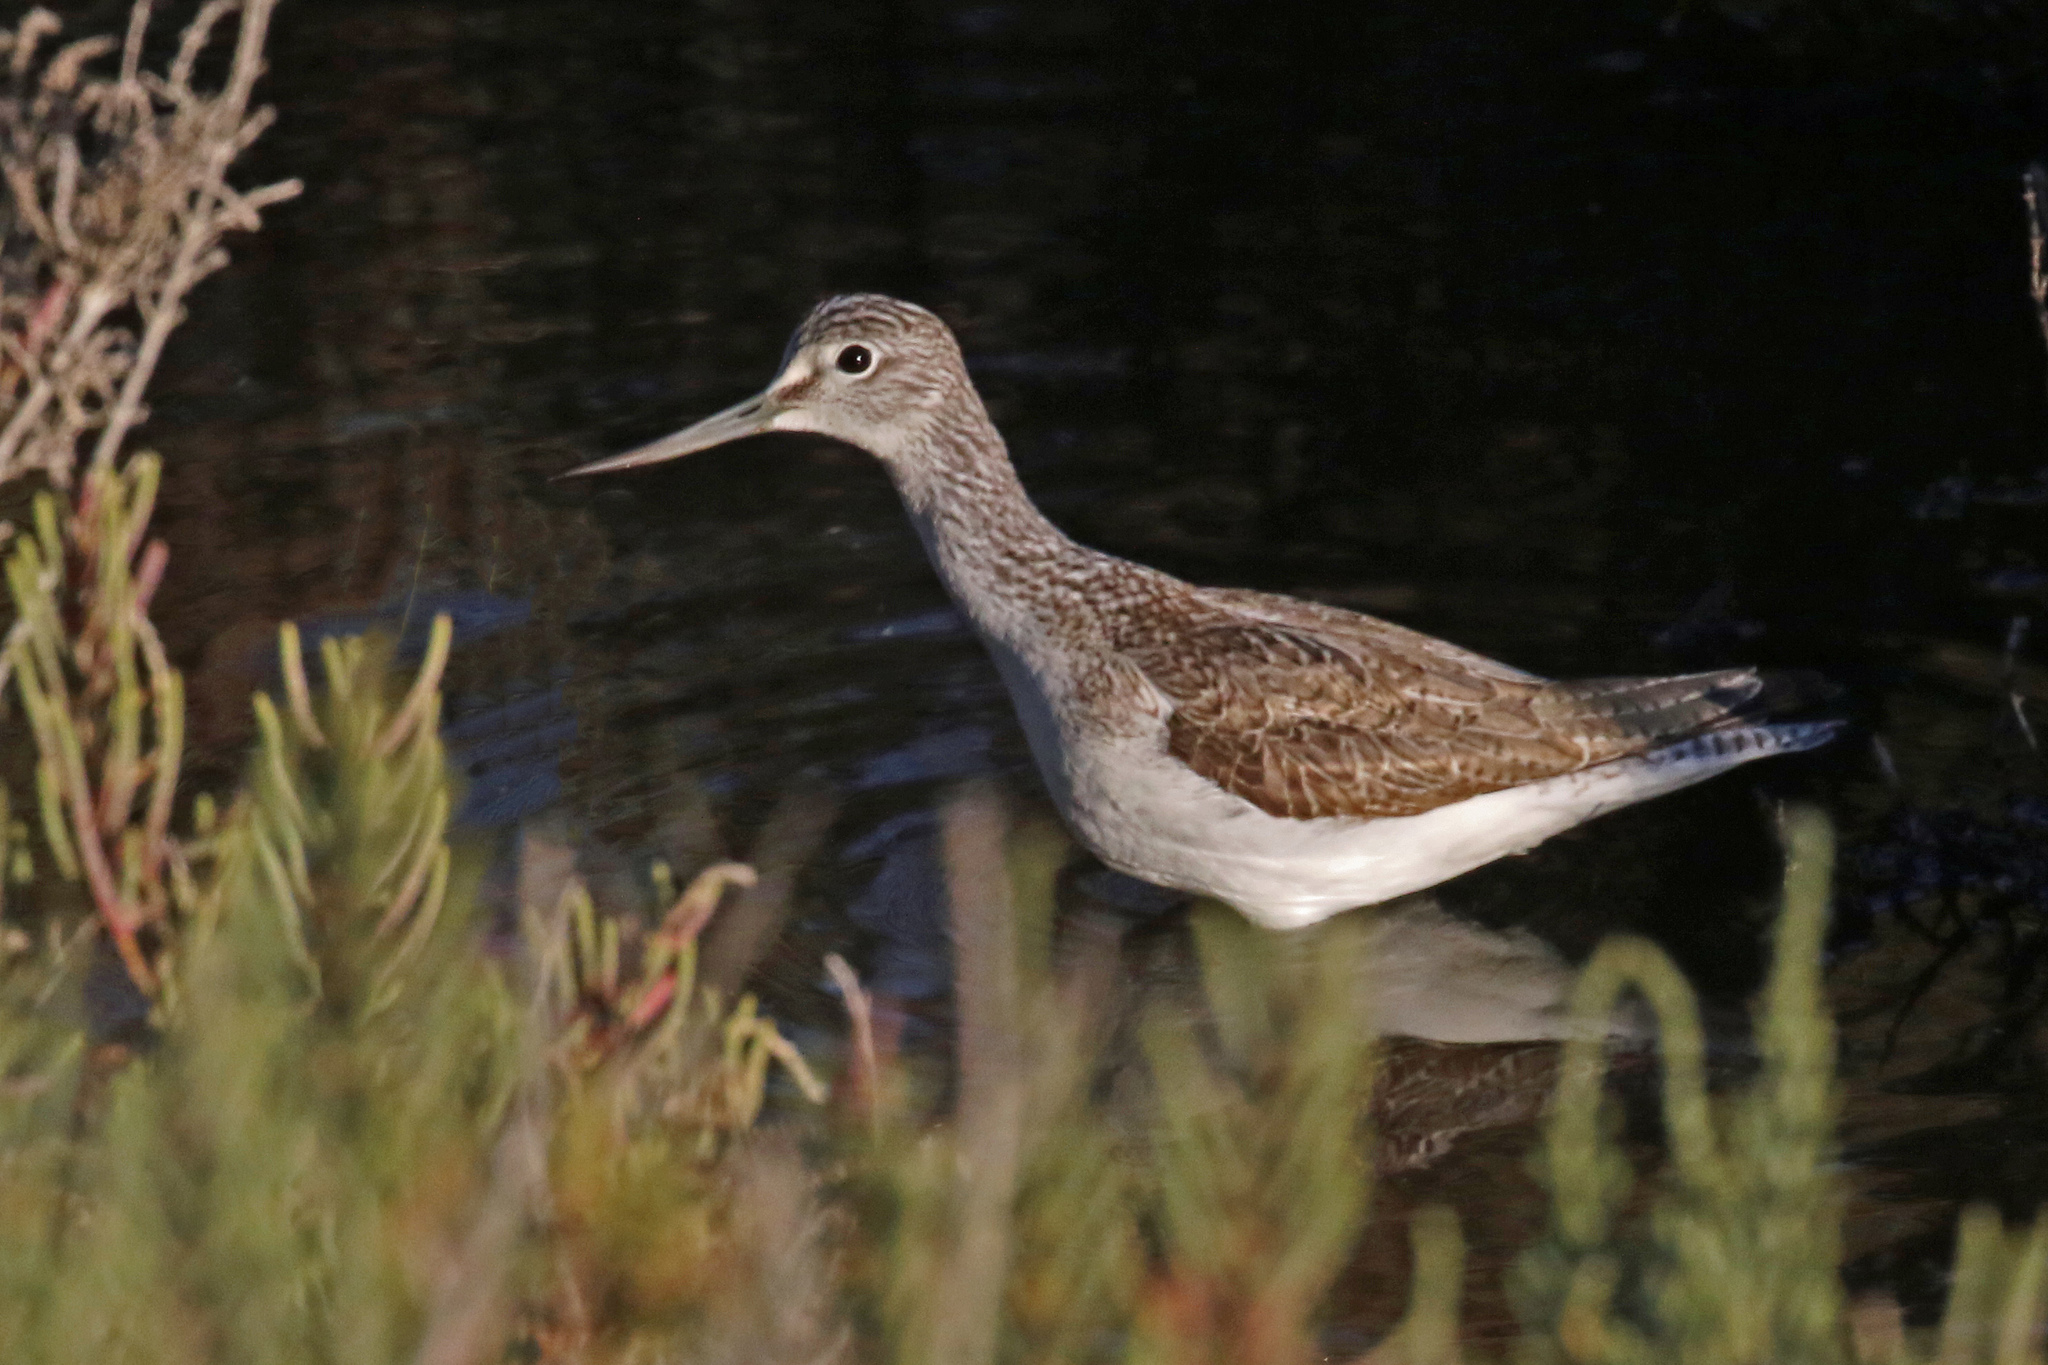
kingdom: Animalia
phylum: Chordata
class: Aves
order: Charadriiformes
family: Scolopacidae
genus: Tringa
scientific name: Tringa nebularia
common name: Common greenshank
